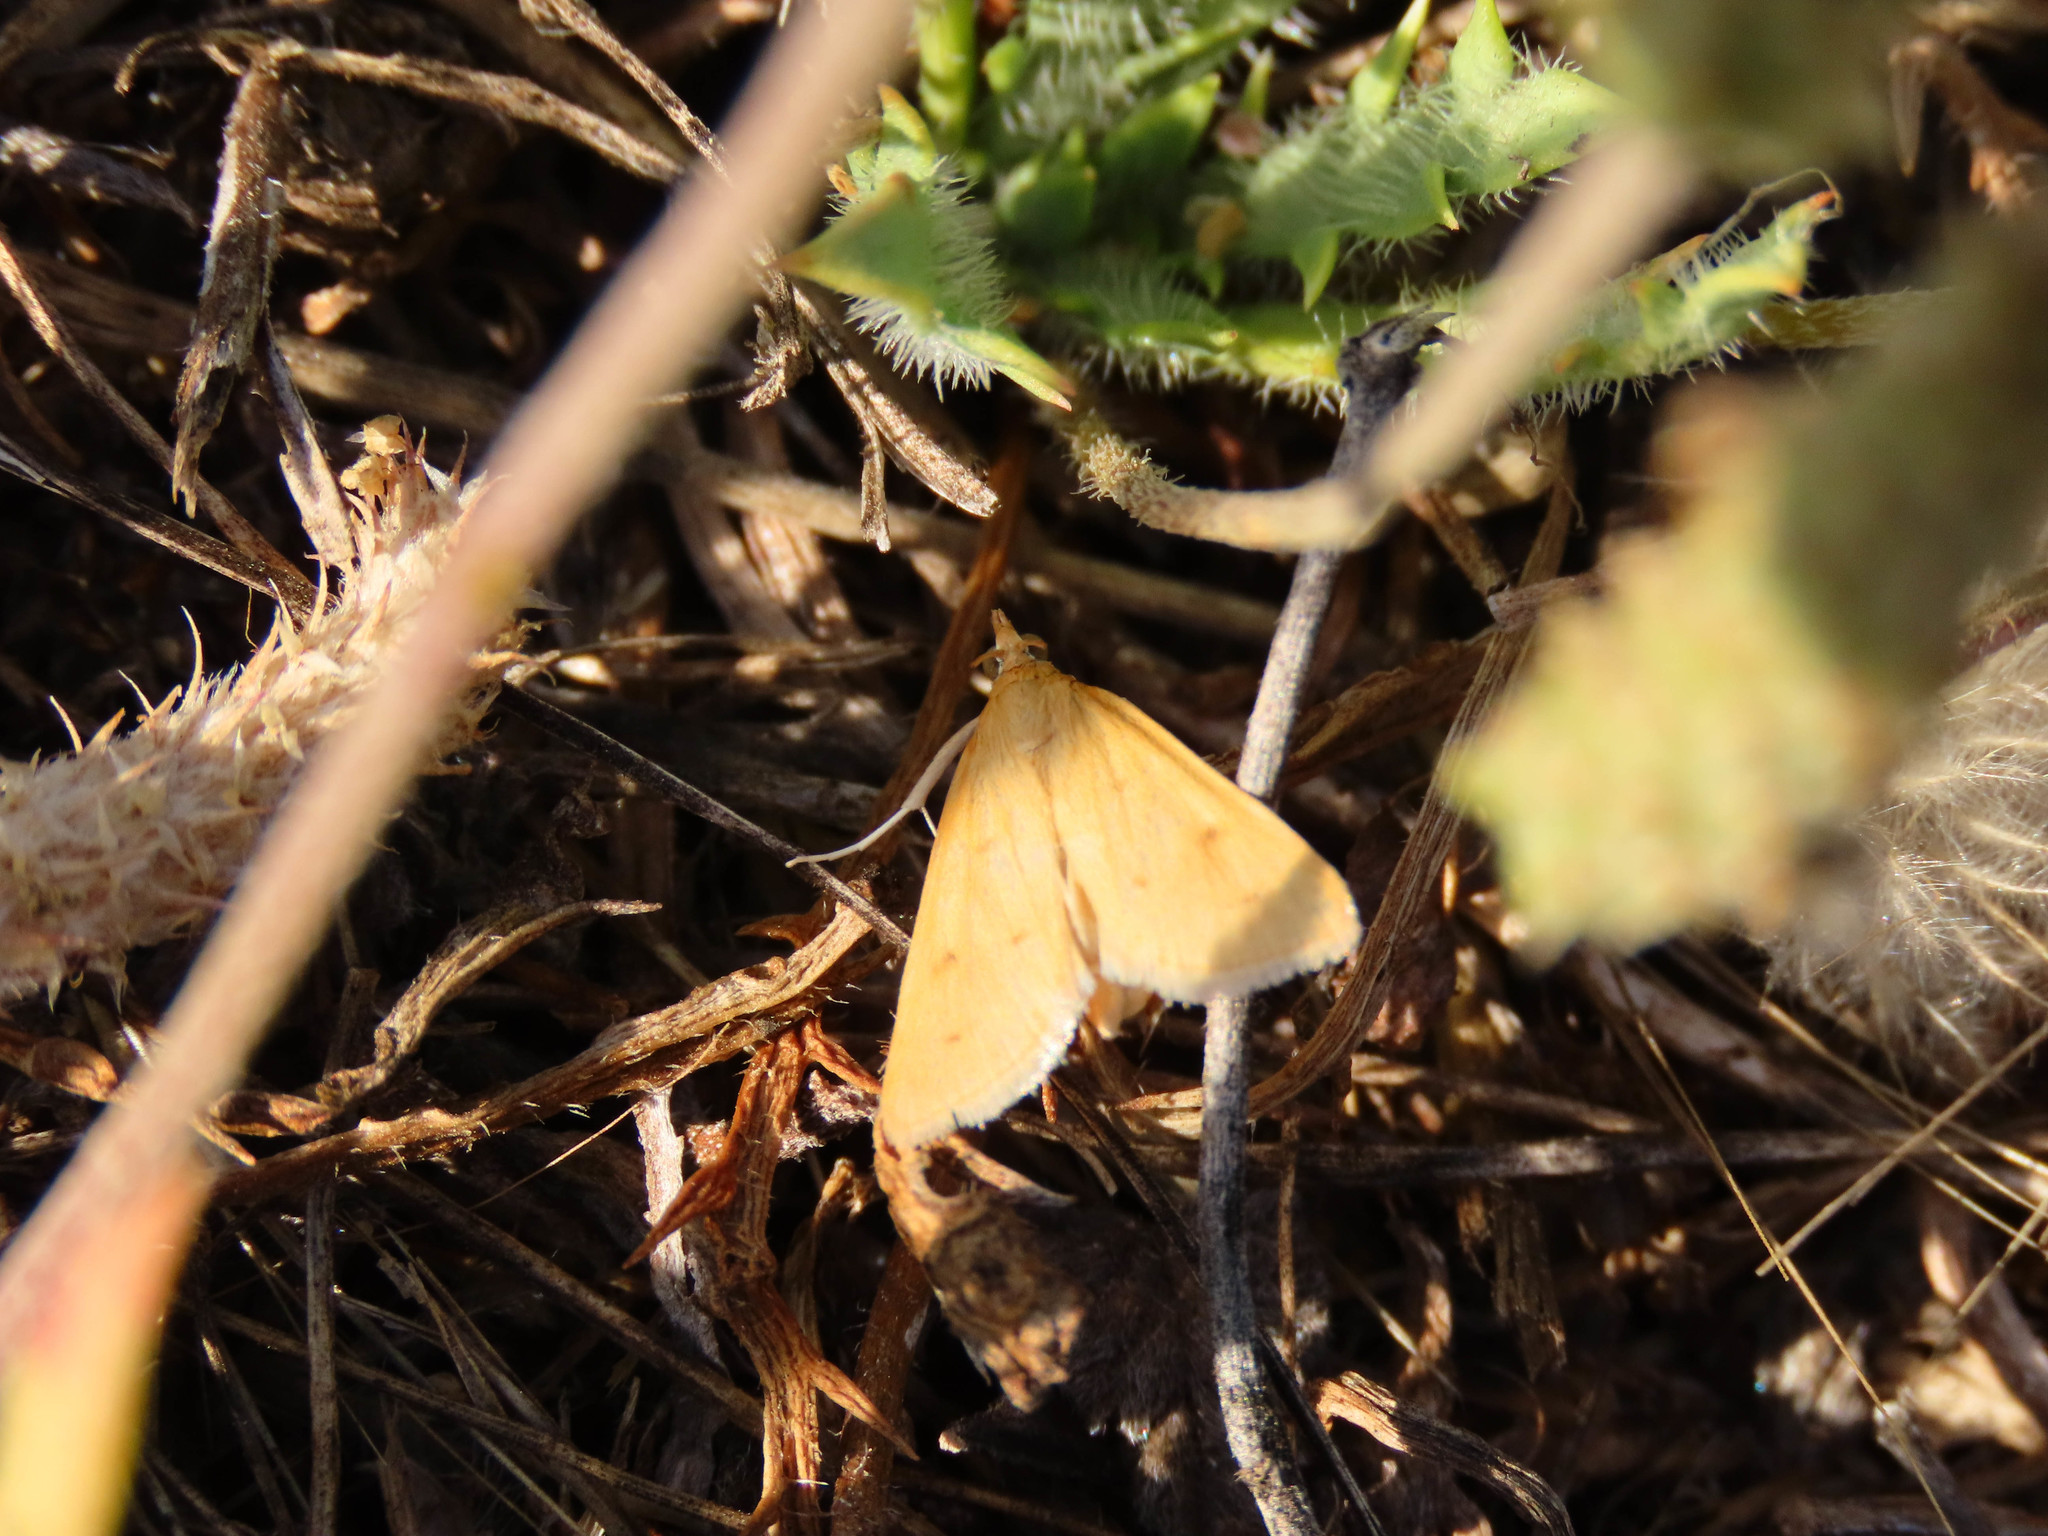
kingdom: Animalia
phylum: Arthropoda
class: Insecta
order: Lepidoptera
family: Crambidae
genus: Achyra
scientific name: Achyra nudalis
